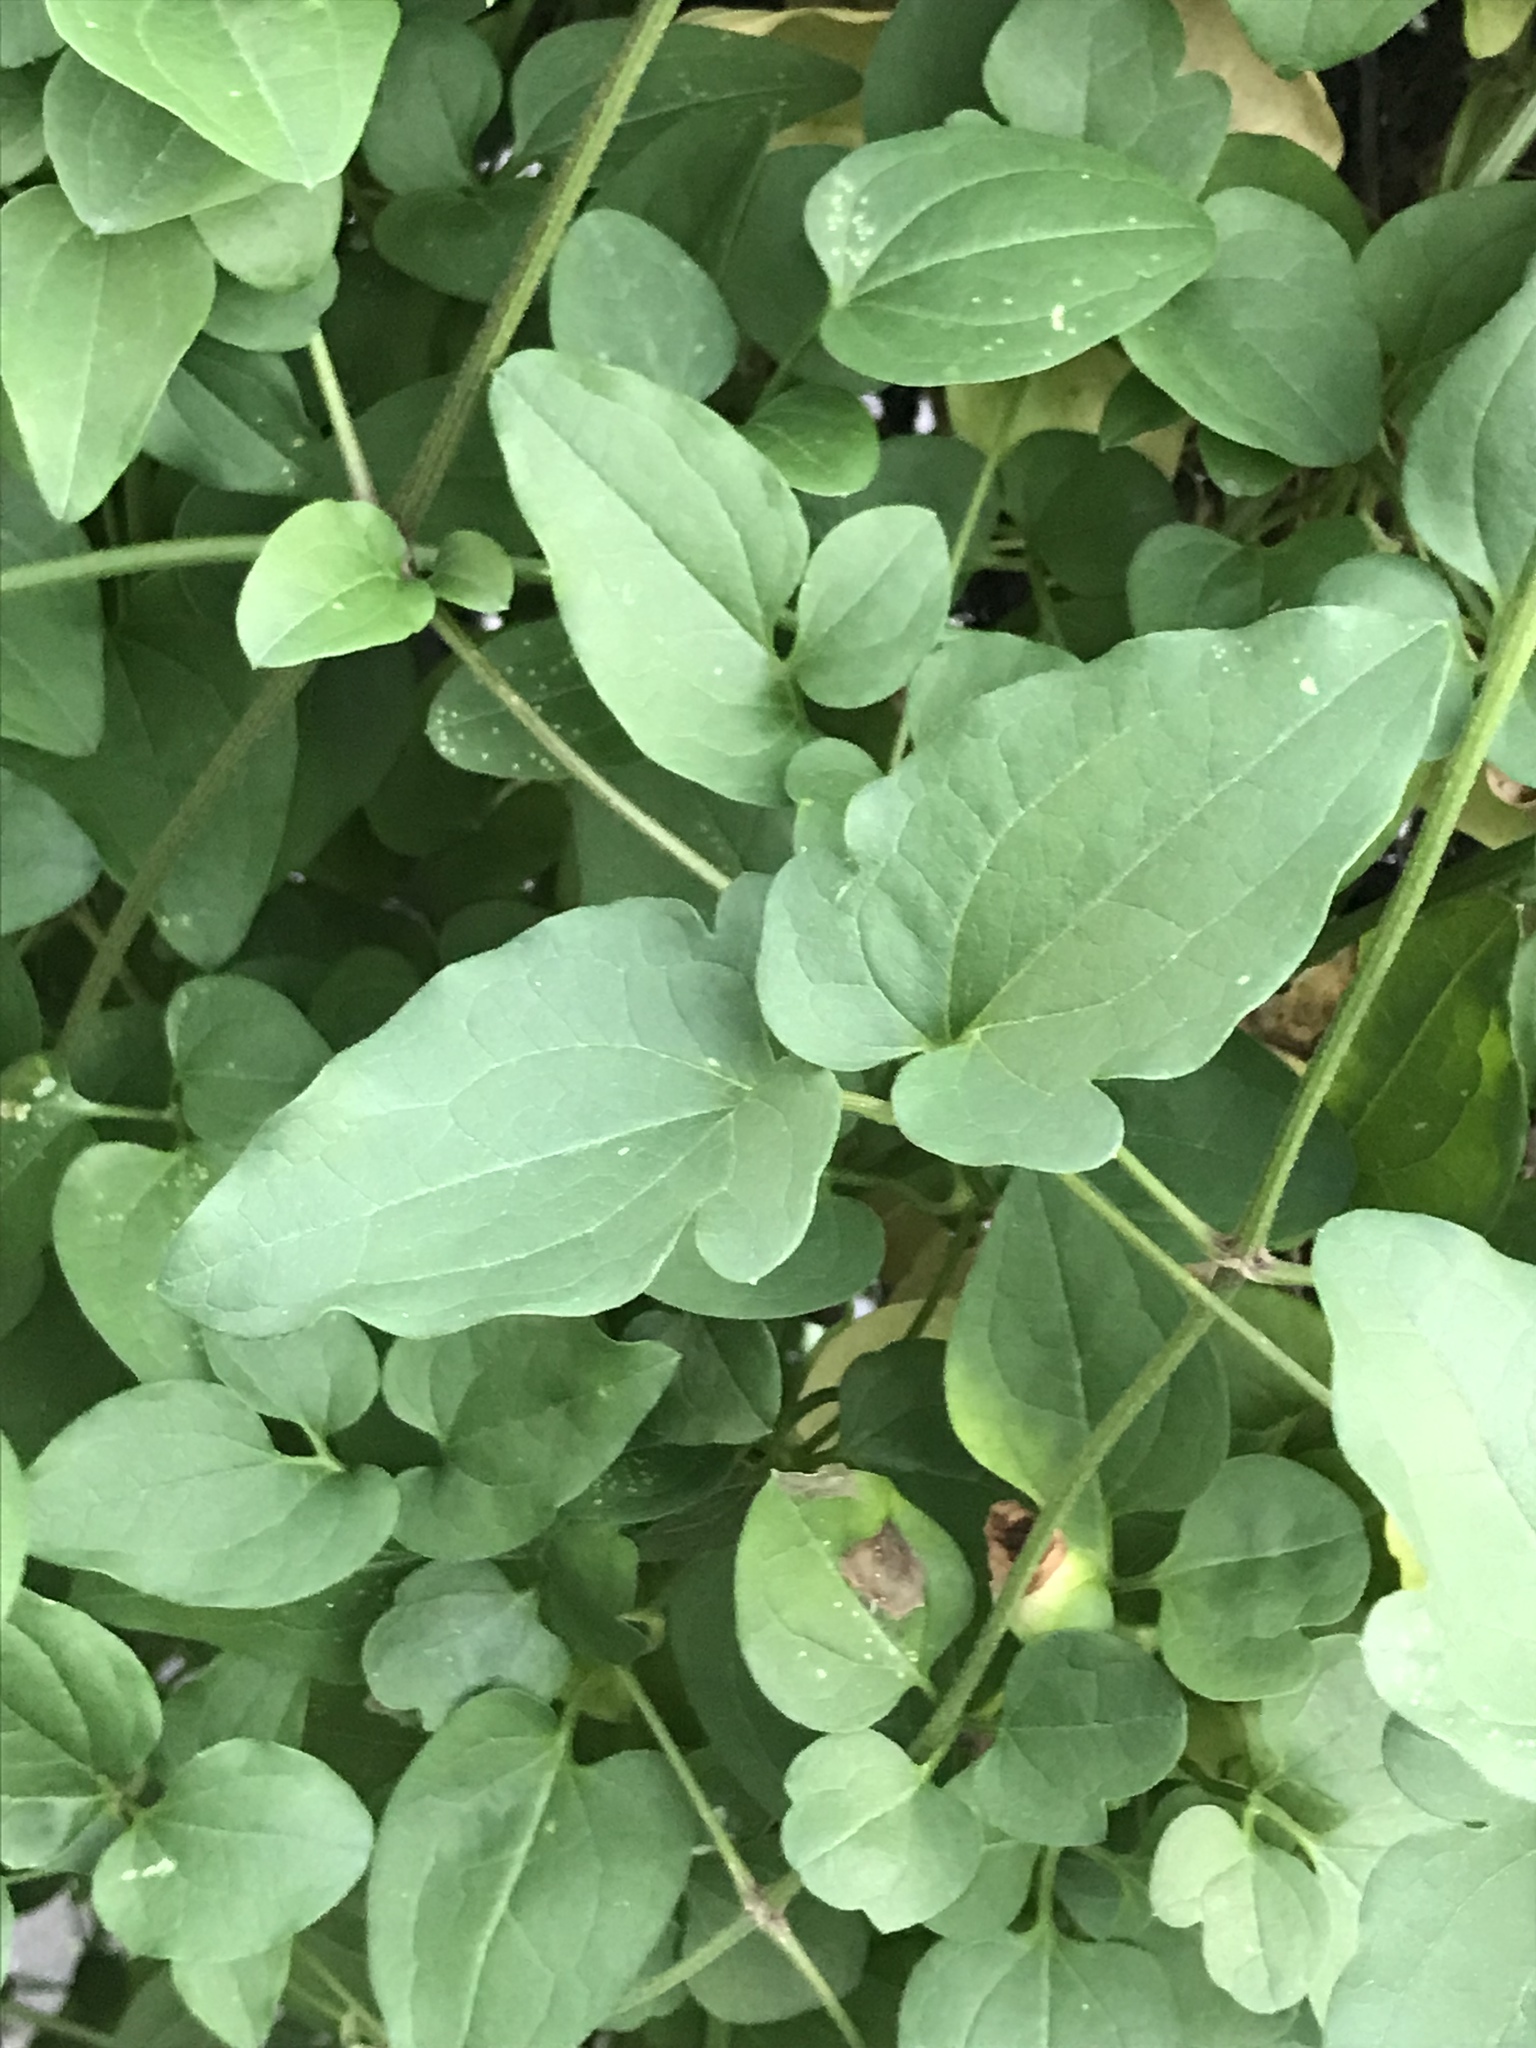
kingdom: Plantae
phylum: Tracheophyta
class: Magnoliopsida
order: Ranunculales
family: Ranunculaceae
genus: Clematis
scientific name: Clematis terniflora
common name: Sweet autumn clematis
